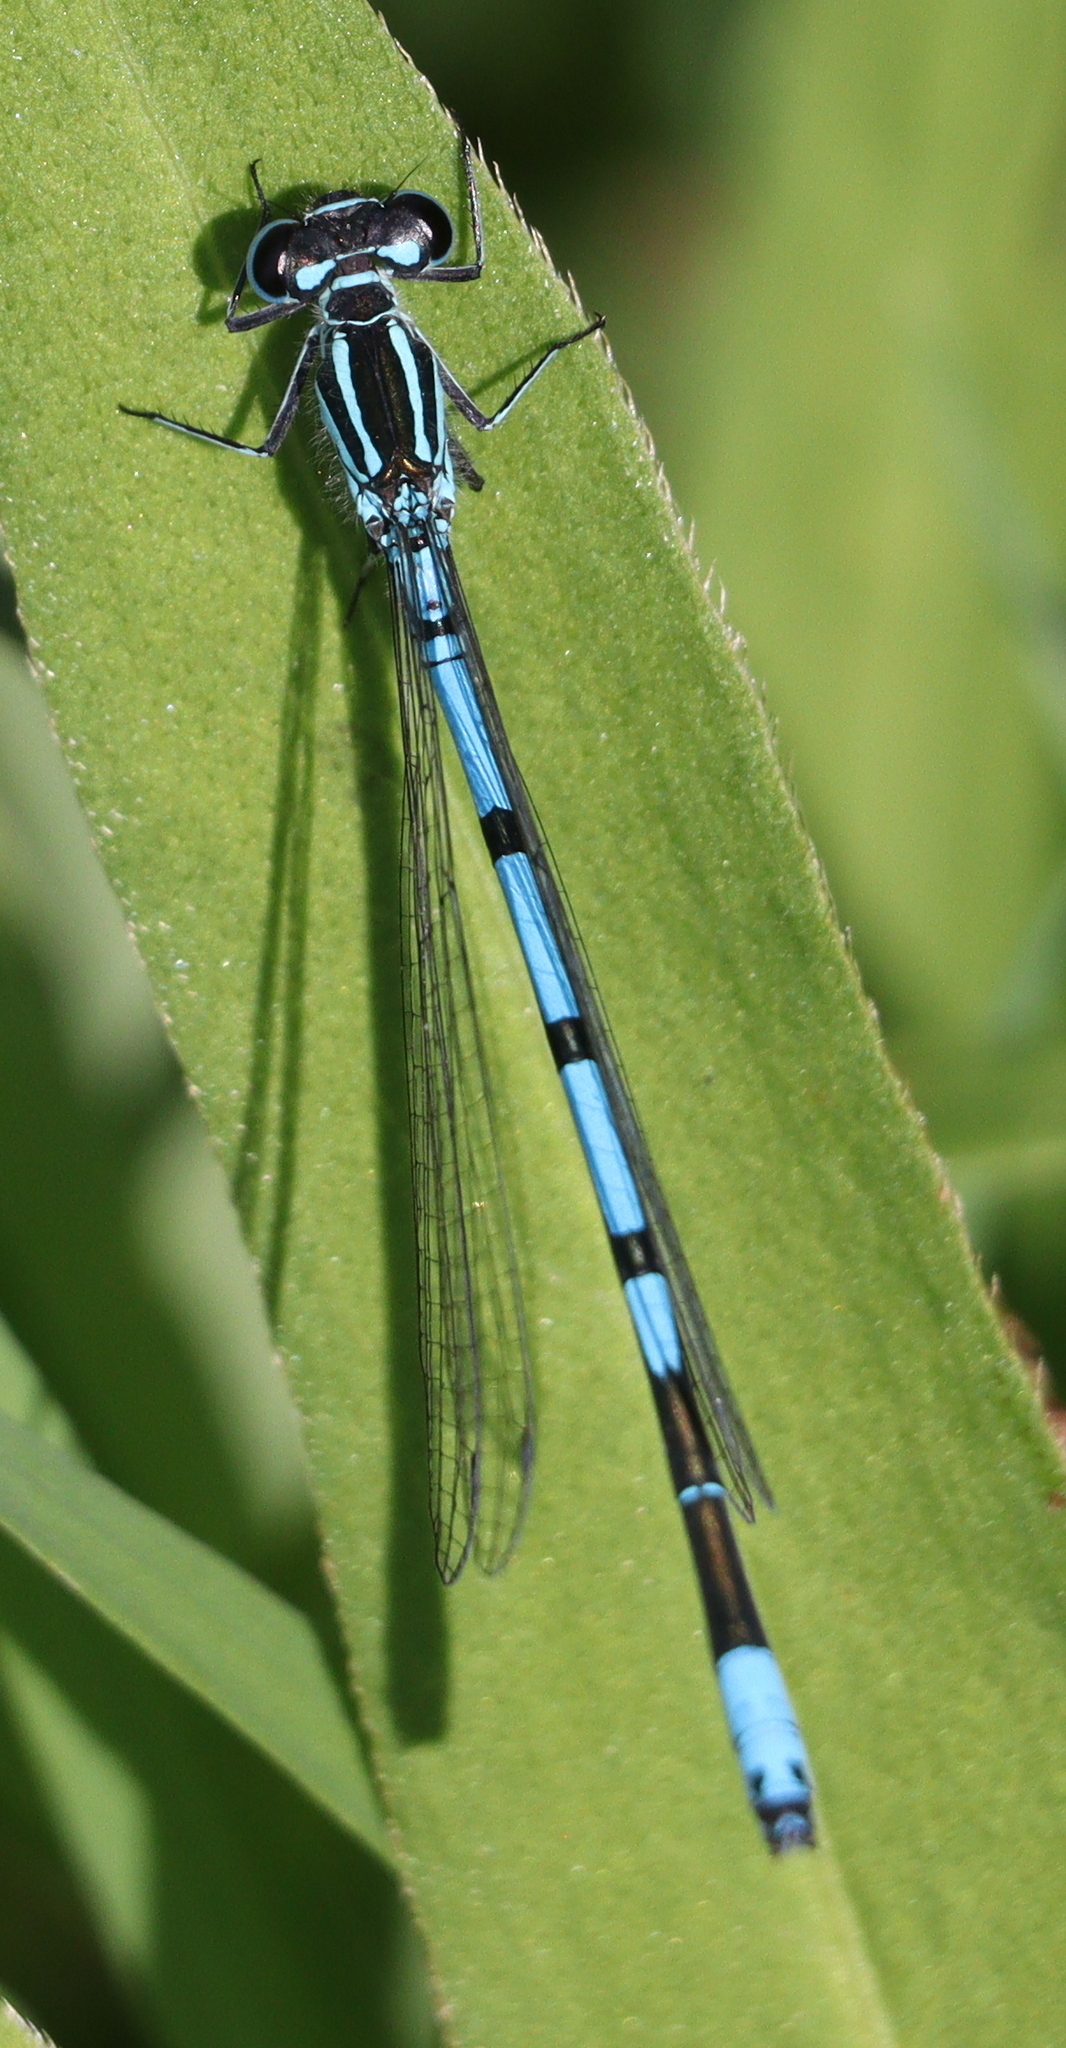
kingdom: Animalia
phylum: Arthropoda
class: Insecta
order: Odonata
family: Coenagrionidae
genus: Coenagrion
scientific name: Coenagrion puella
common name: Azure damselfly
